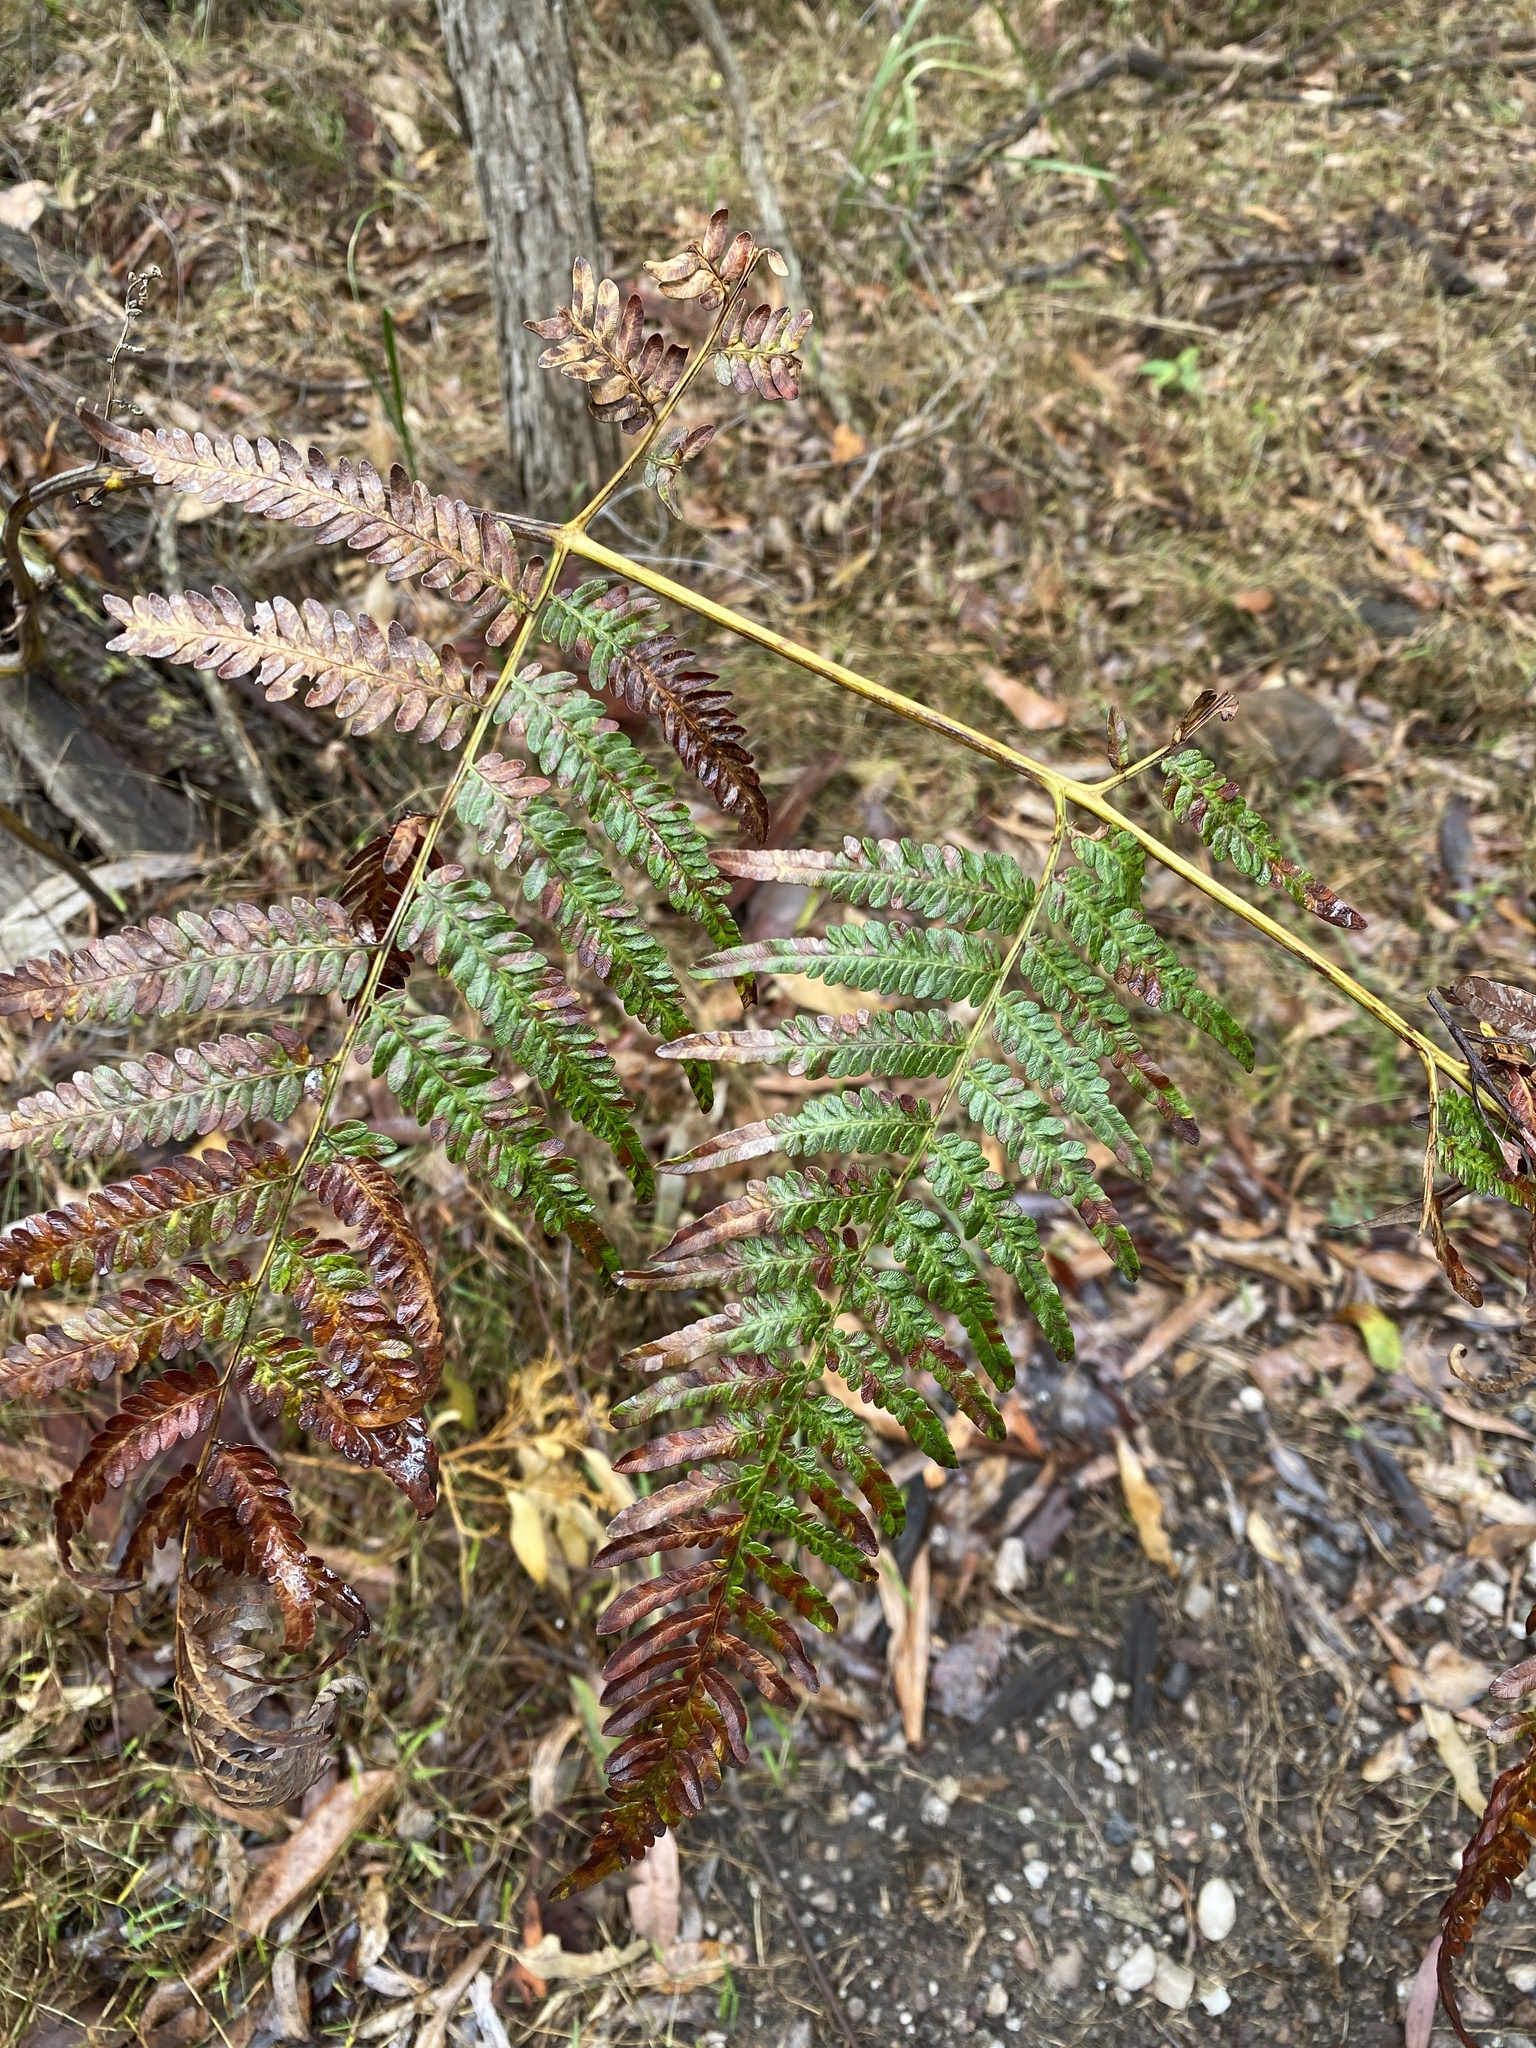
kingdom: Plantae
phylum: Tracheophyta
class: Polypodiopsida
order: Polypodiales
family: Dennstaedtiaceae
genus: Pteridium
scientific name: Pteridium esculentum
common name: Bracken fern
